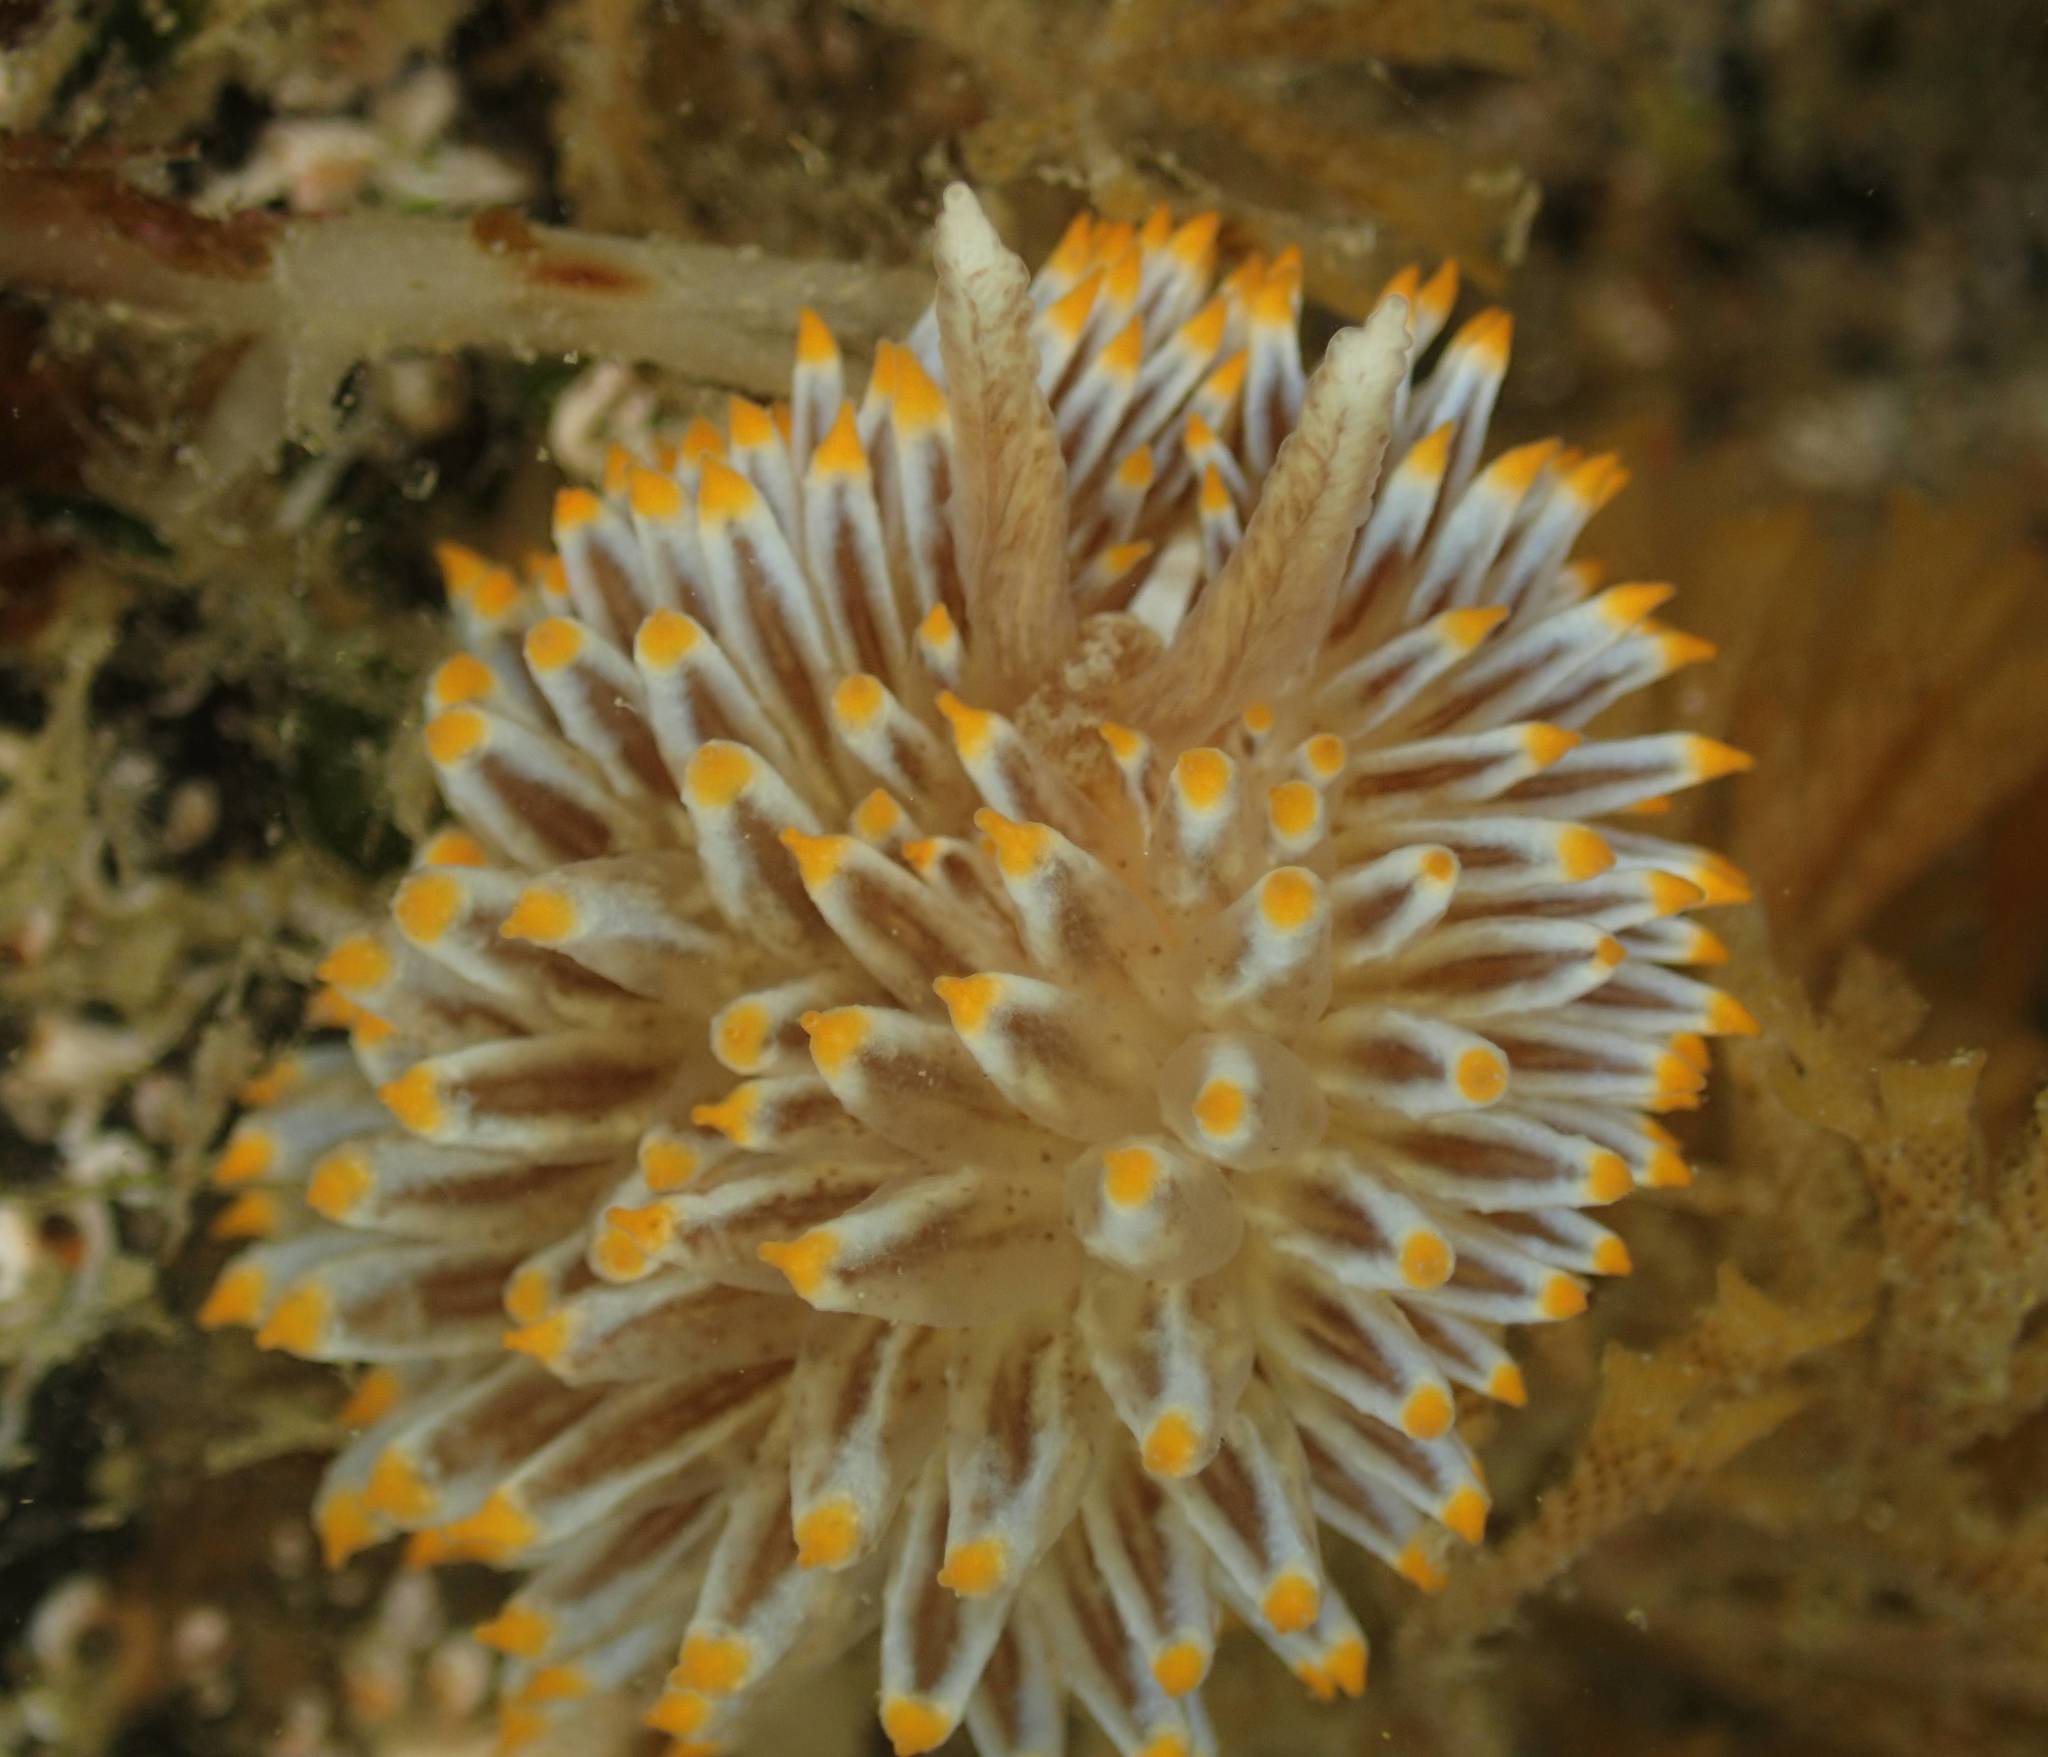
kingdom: Animalia
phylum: Mollusca
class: Gastropoda
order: Nudibranchia
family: Janolidae
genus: Antiopella
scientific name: Antiopella novozealandica
